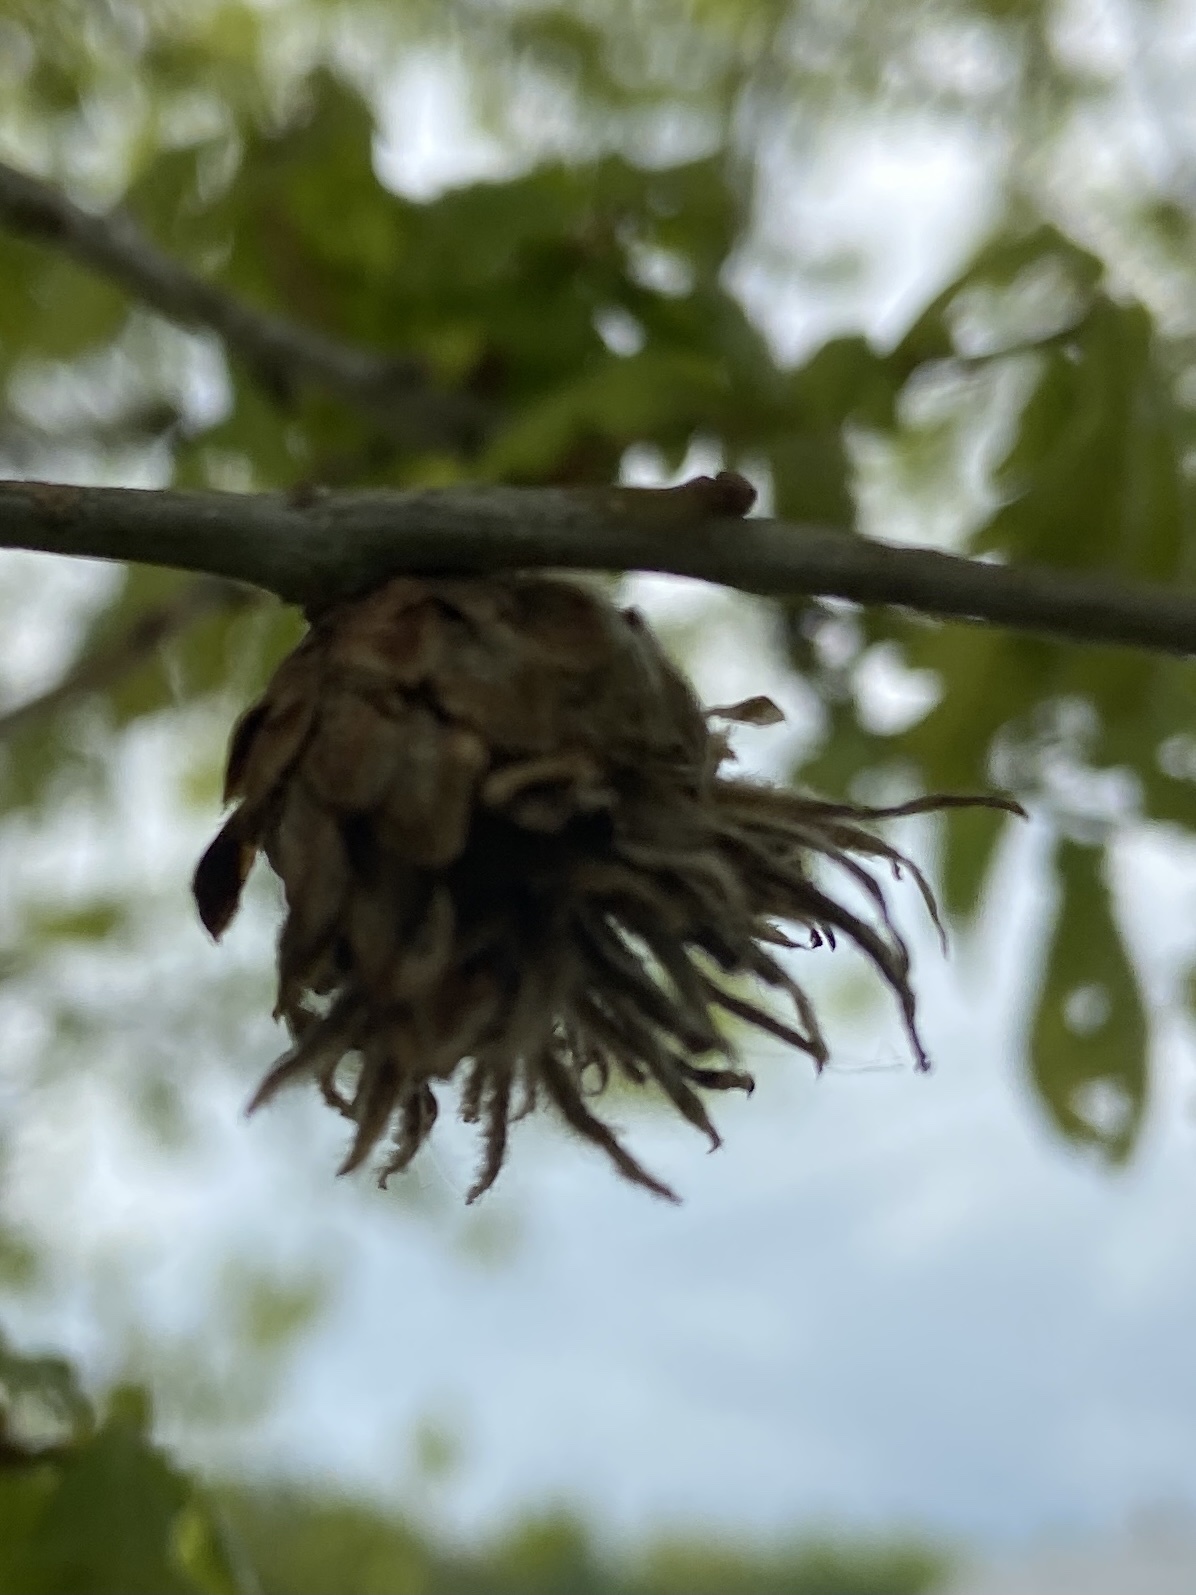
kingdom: Animalia
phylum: Arthropoda
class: Insecta
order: Hymenoptera
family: Cynipidae
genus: Andricus
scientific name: Andricus foecundatrix
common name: Artichoke gall
